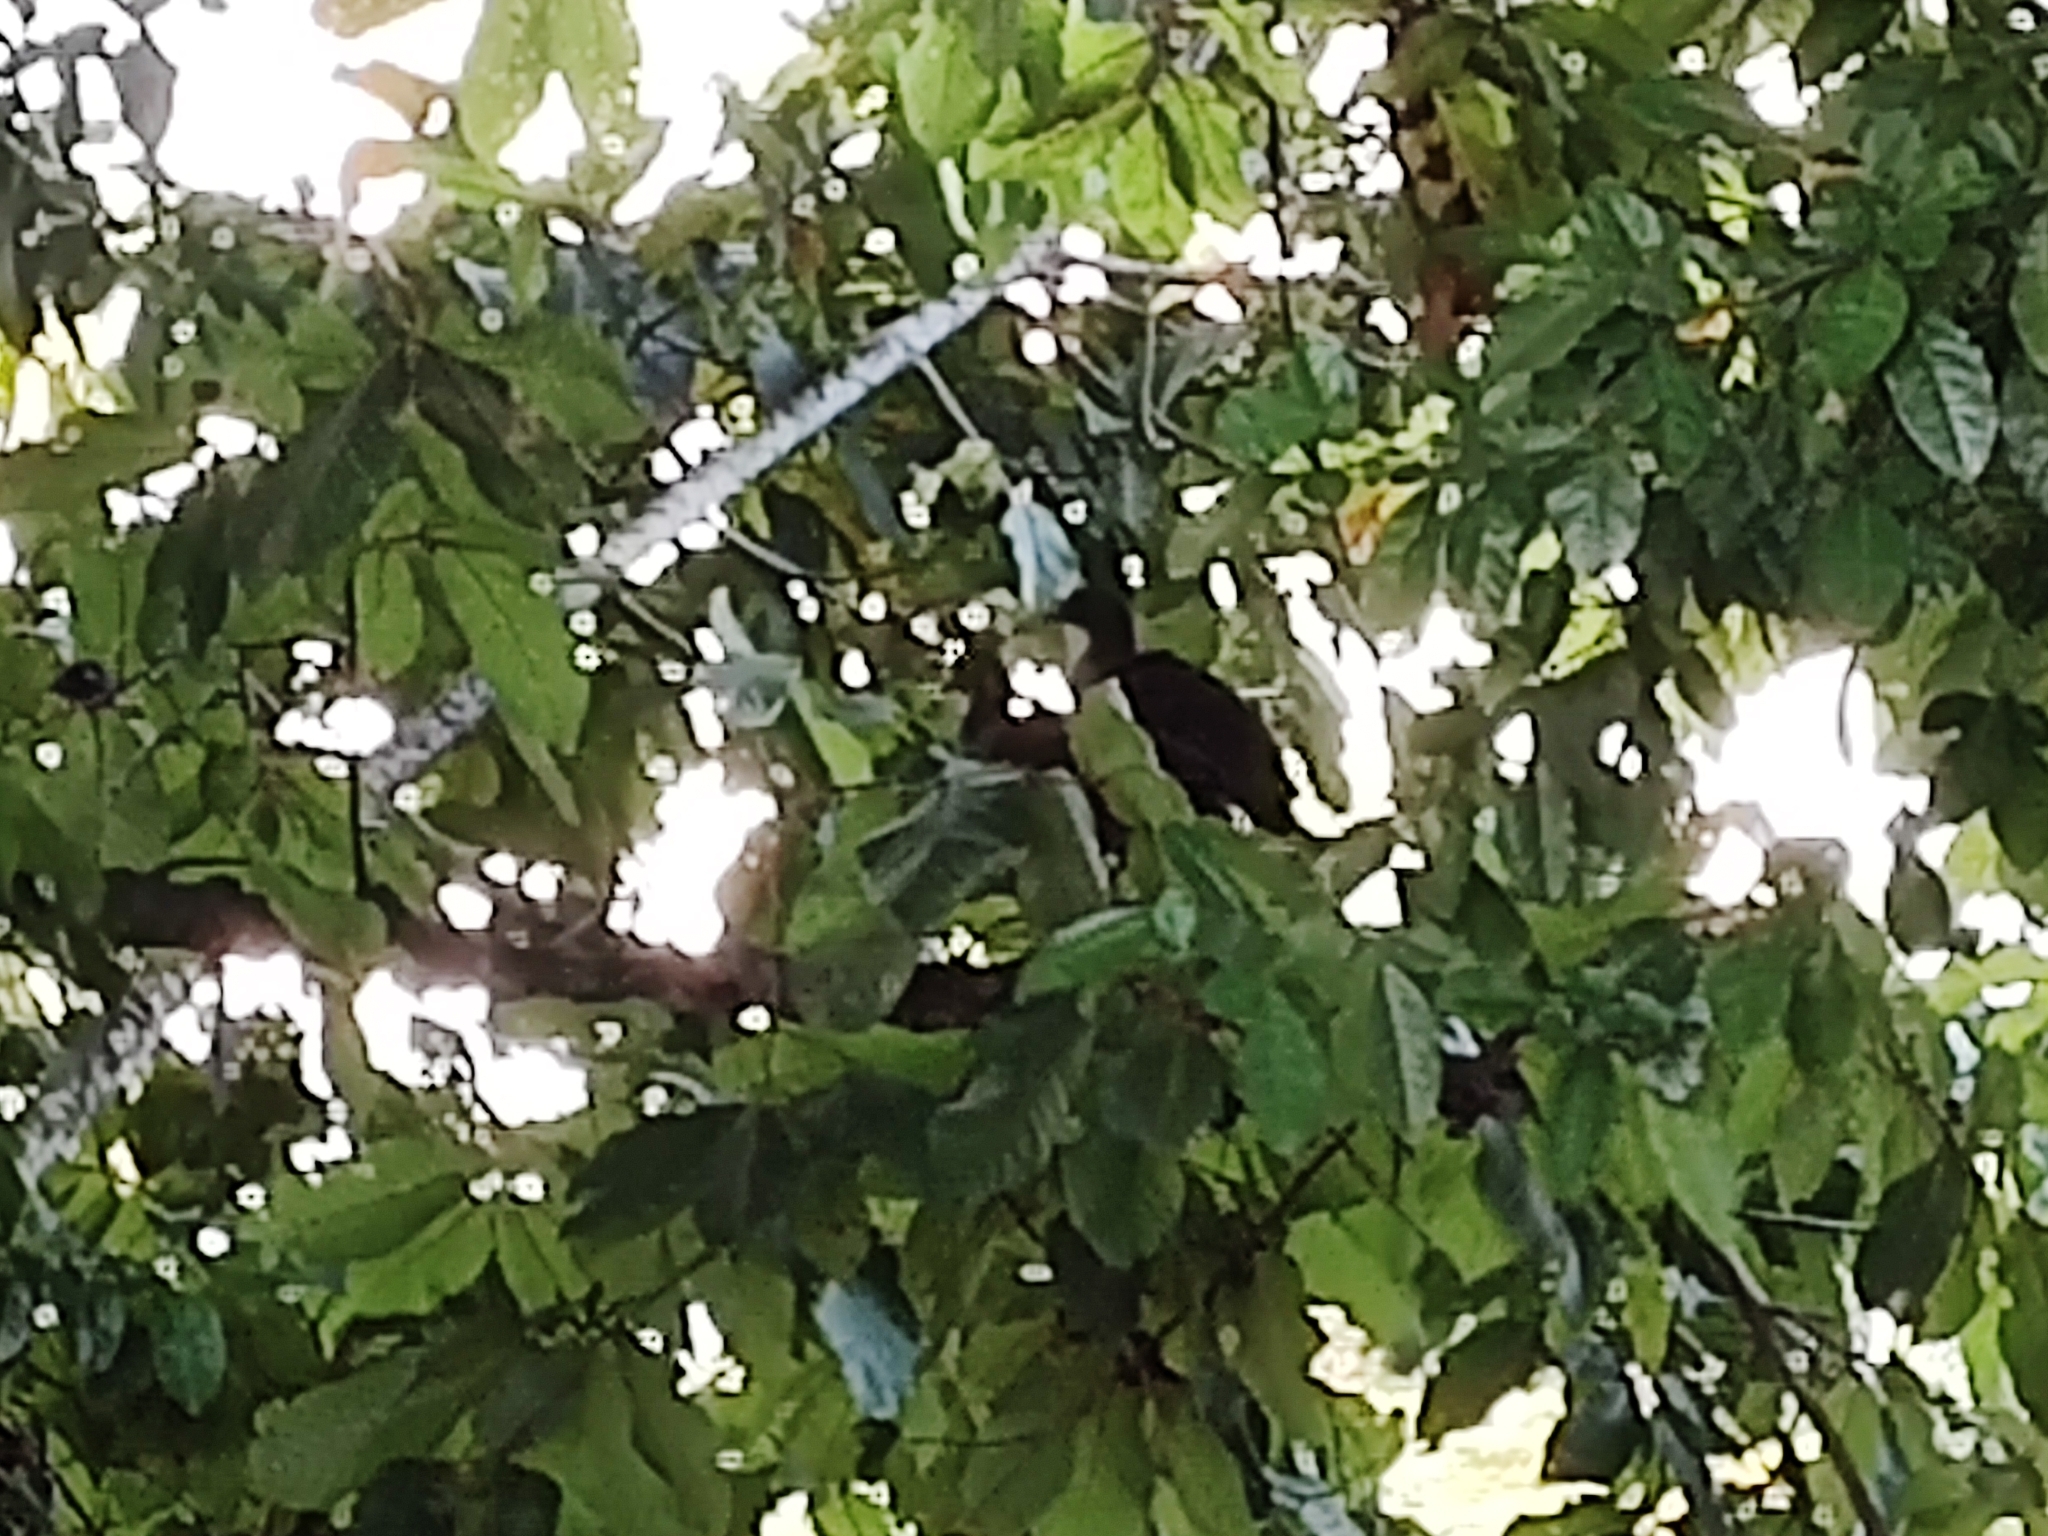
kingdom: Animalia
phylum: Chordata
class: Aves
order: Galliformes
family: Cracidae
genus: Ortalis
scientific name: Ortalis guttata
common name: Speckled chachalaca
